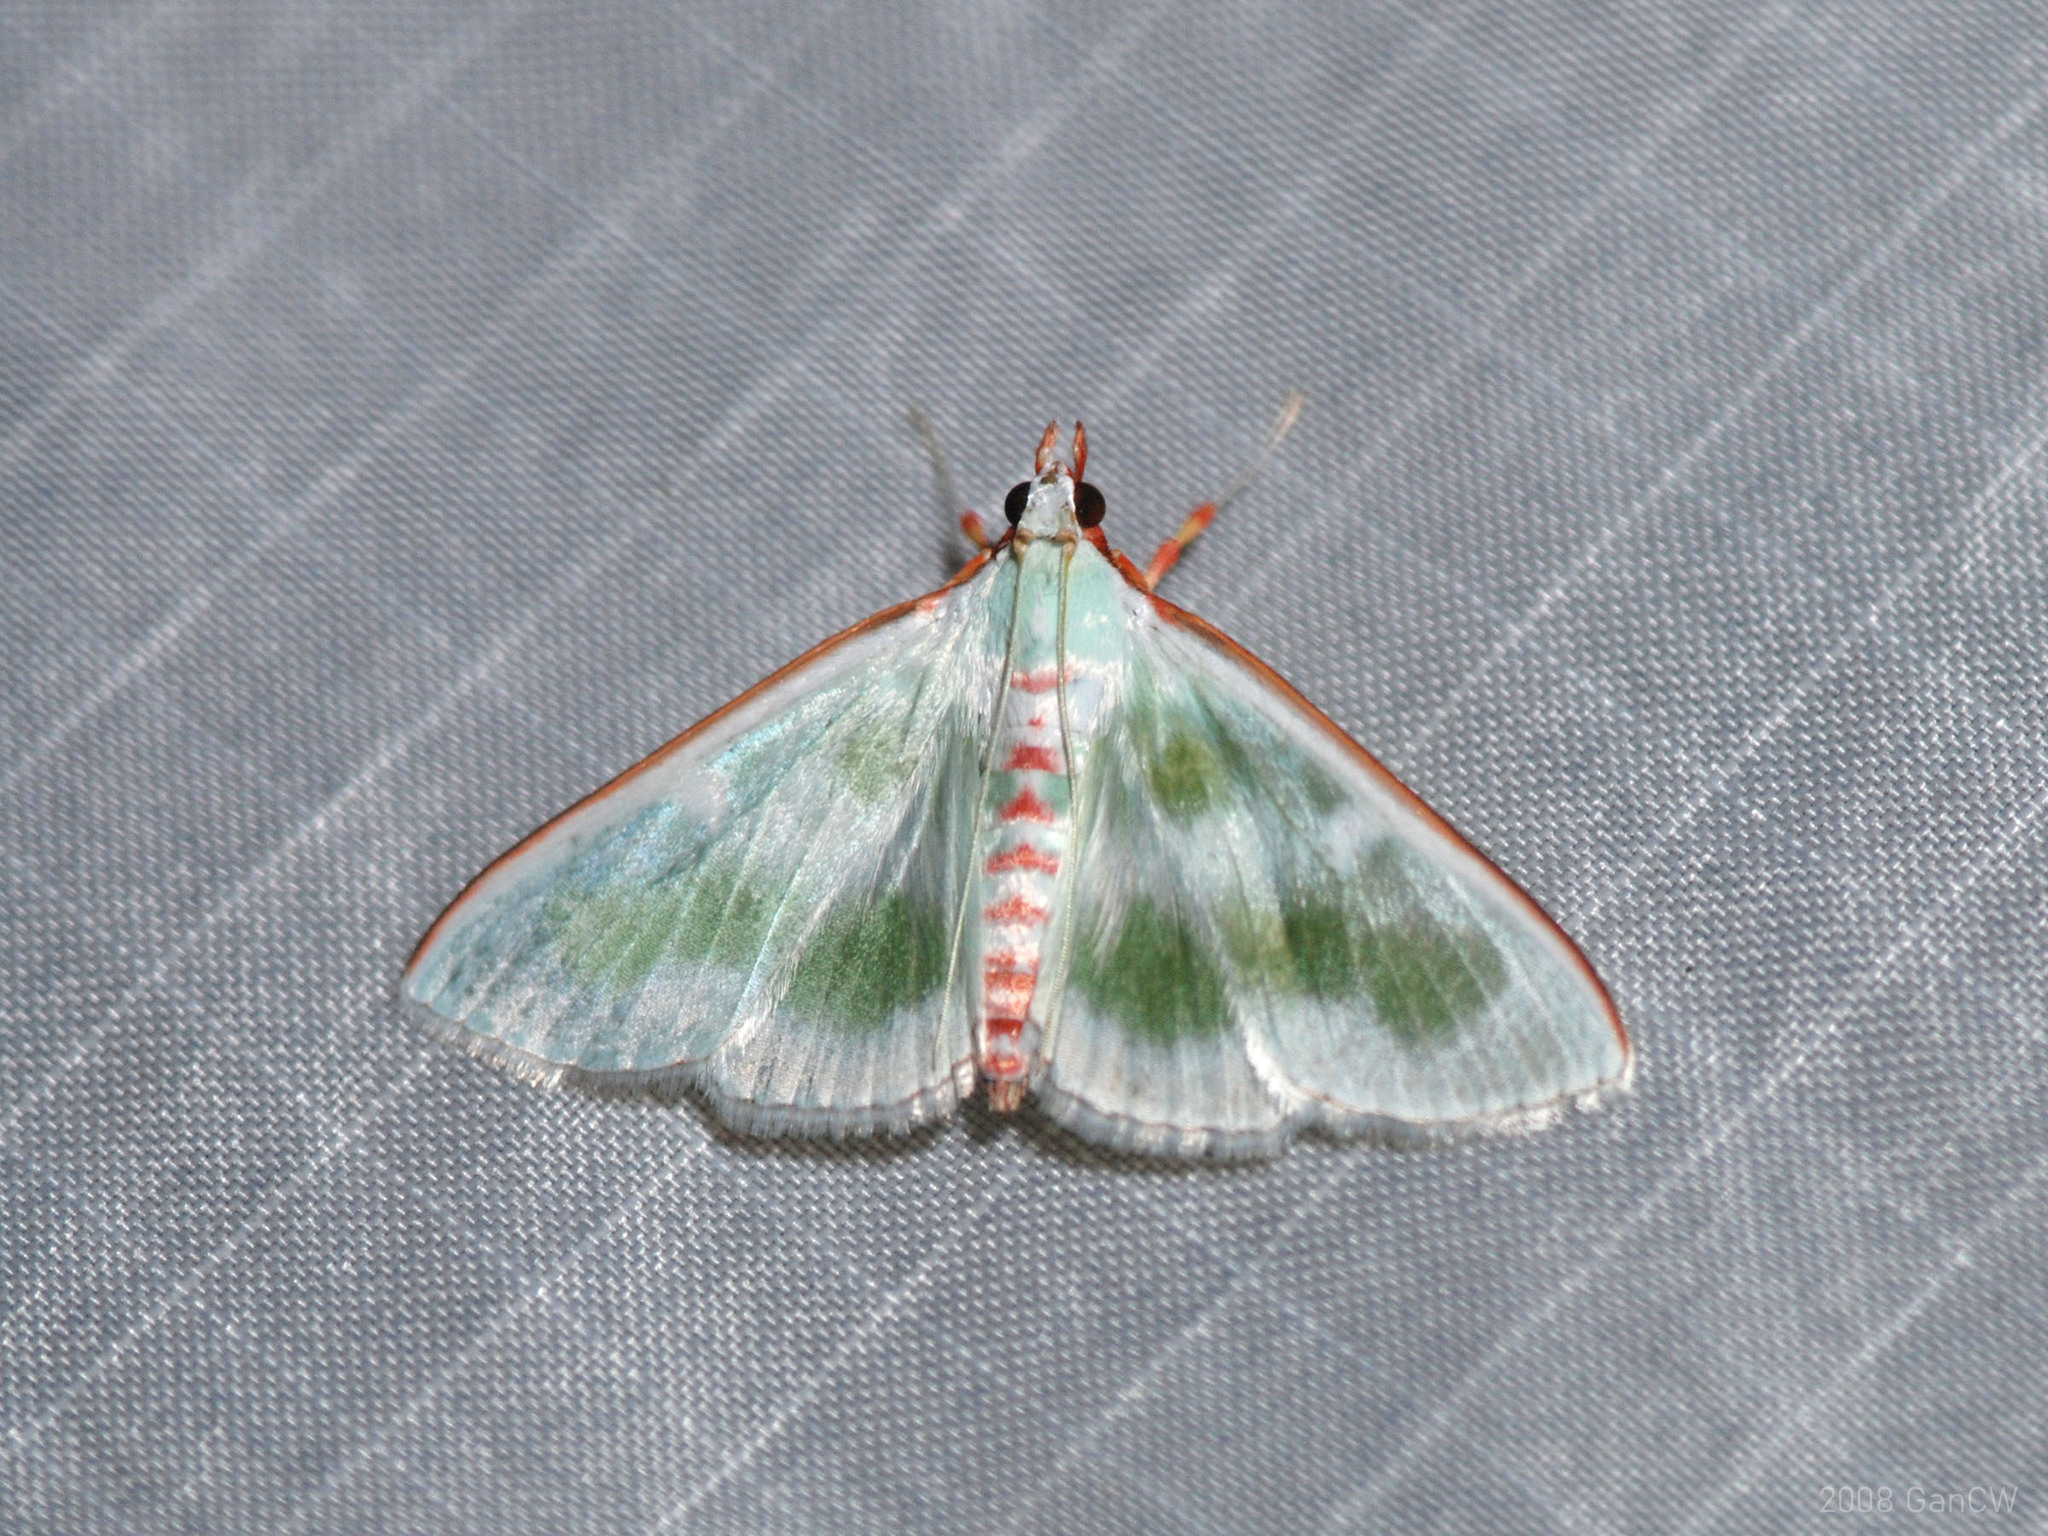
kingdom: Animalia
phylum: Arthropoda
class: Insecta
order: Lepidoptera
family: Crambidae
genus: Arthroschista
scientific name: Arthroschista tricoloralis
